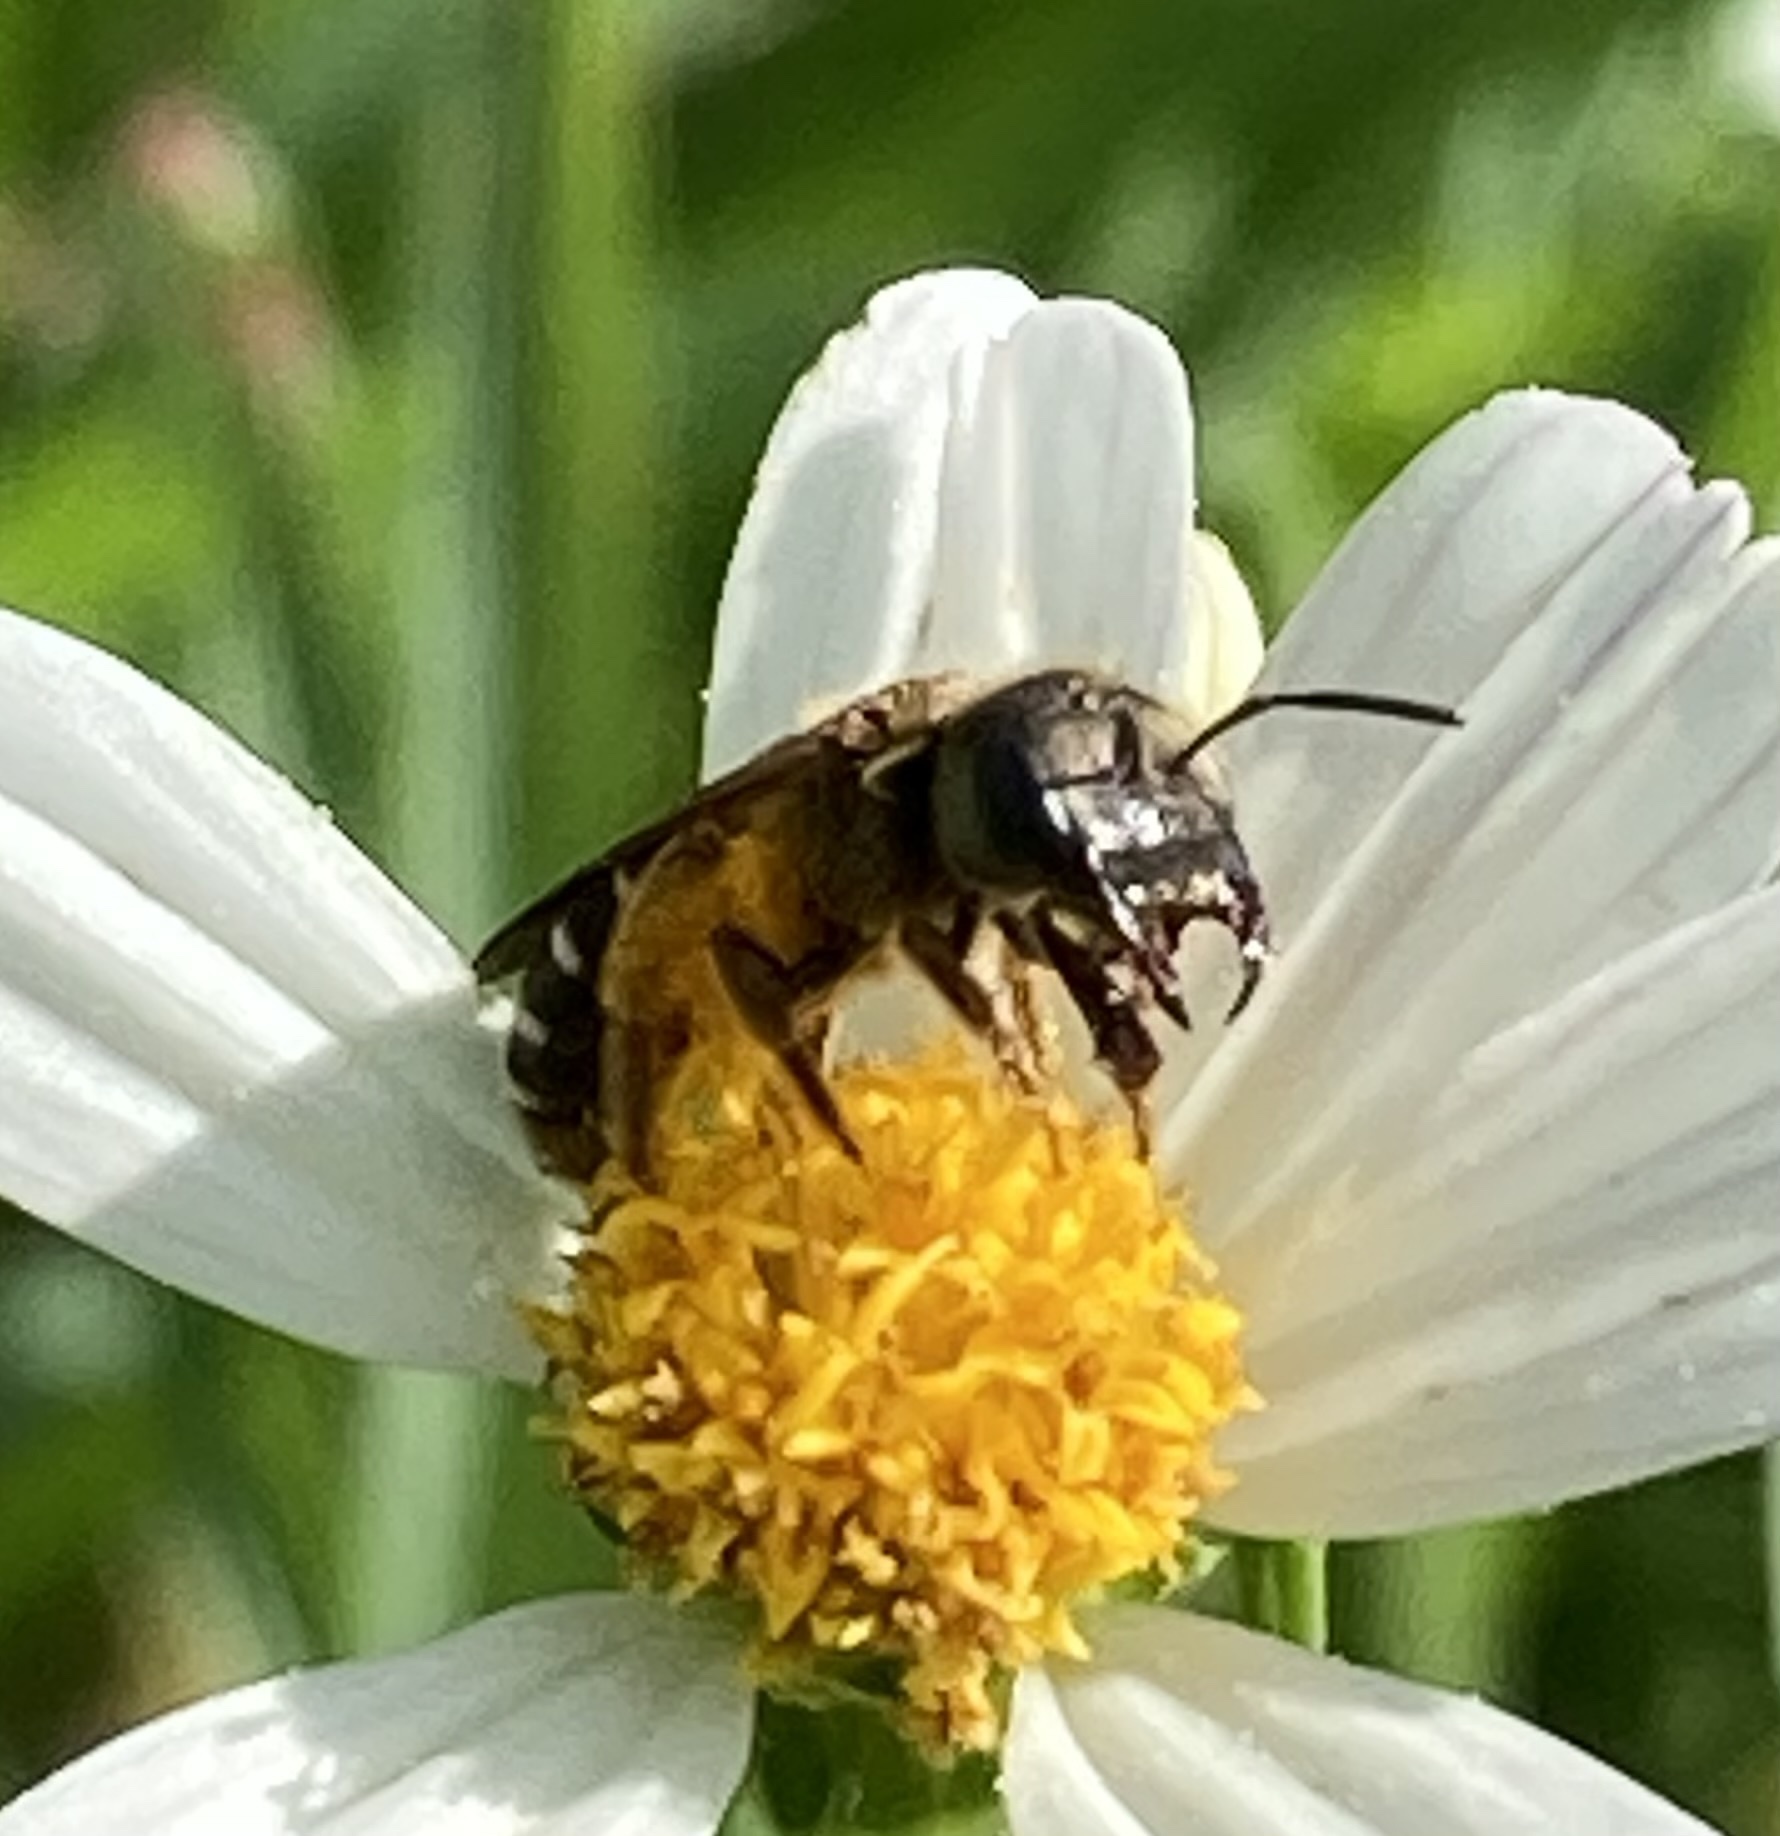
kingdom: Animalia
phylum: Arthropoda
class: Insecta
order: Hymenoptera
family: Halictidae
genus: Halictus
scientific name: Halictus poeyi
